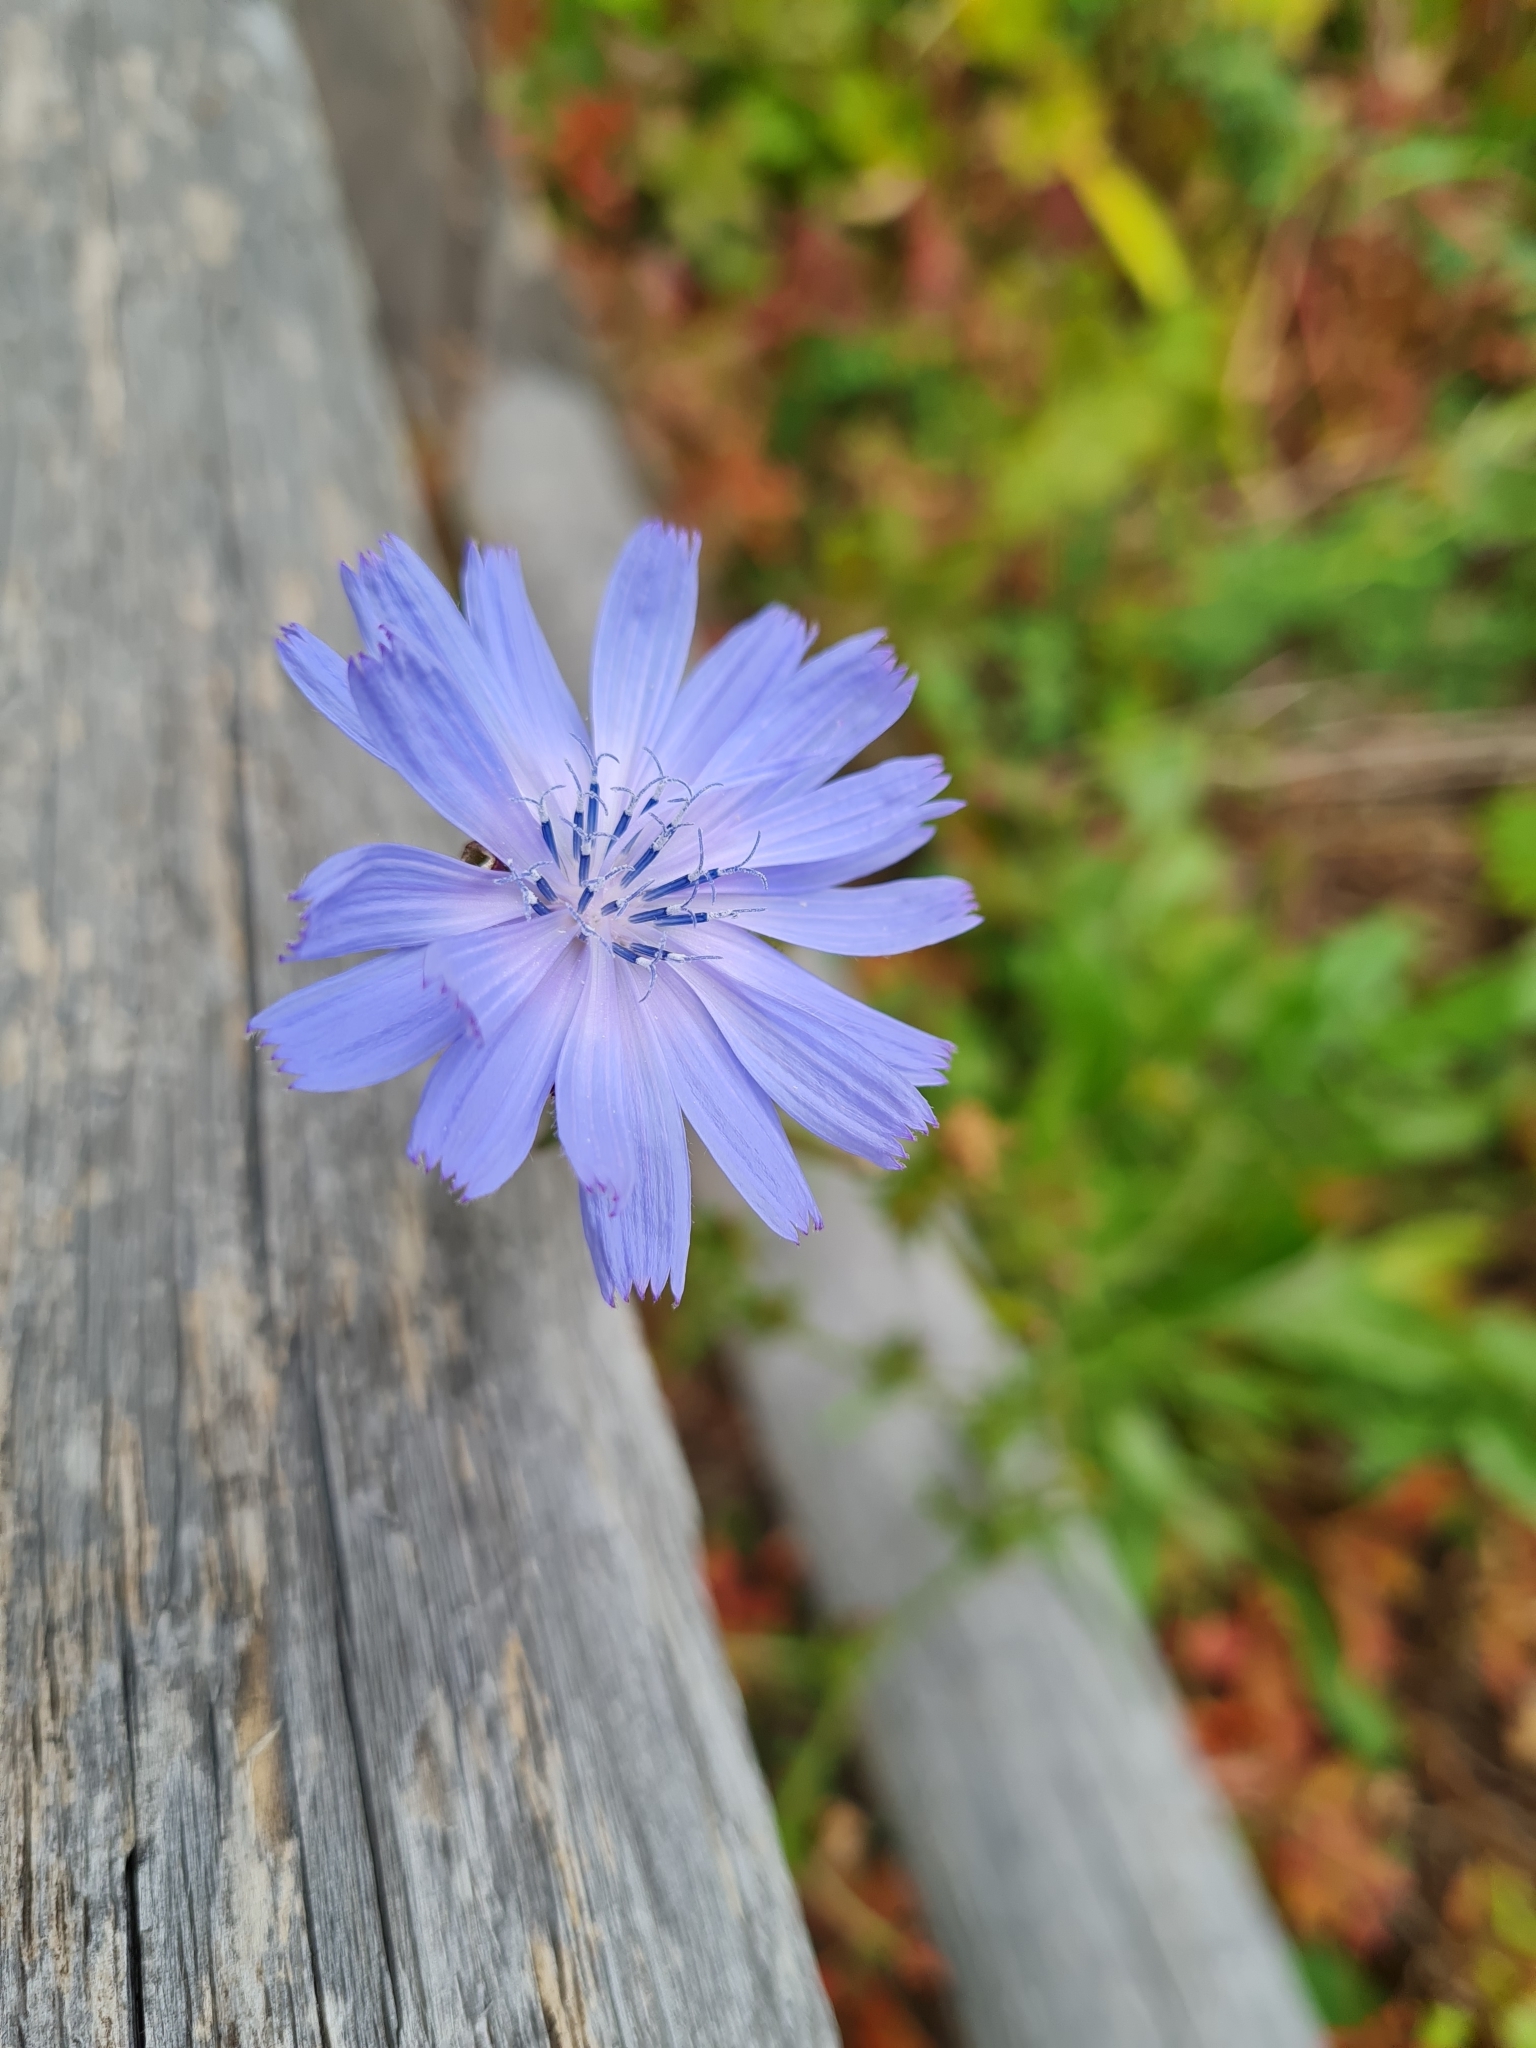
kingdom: Plantae
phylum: Tracheophyta
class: Magnoliopsida
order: Asterales
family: Asteraceae
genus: Cichorium
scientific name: Cichorium intybus
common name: Chicory
